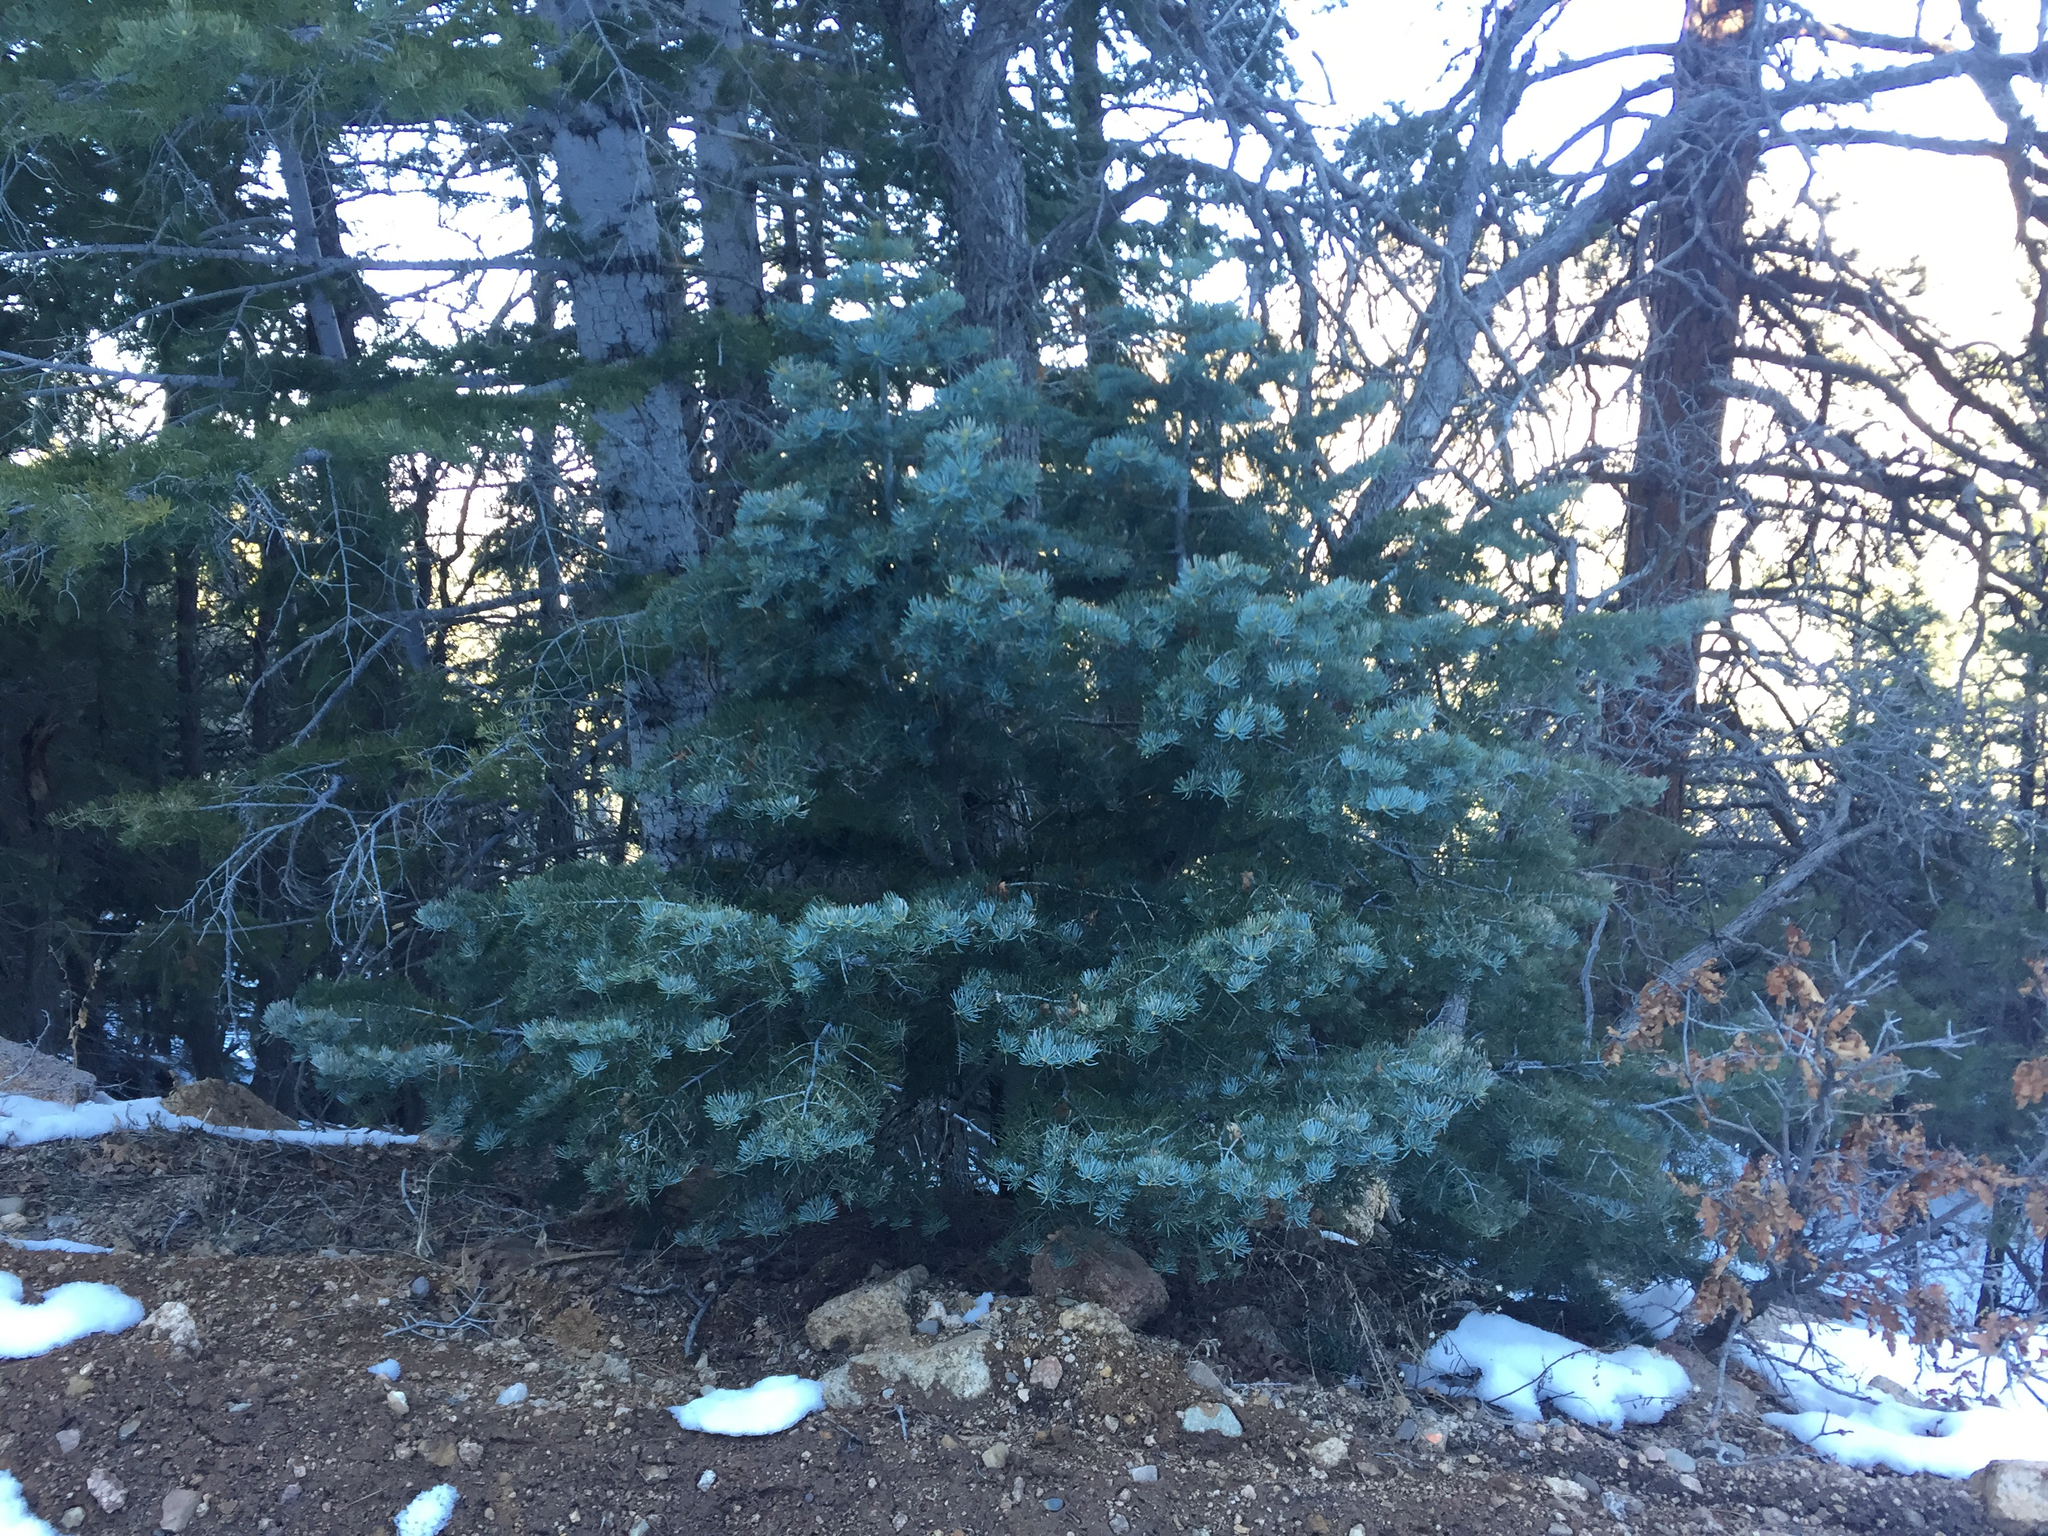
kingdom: Plantae
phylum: Tracheophyta
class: Pinopsida
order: Pinales
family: Pinaceae
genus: Abies
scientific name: Abies concolor
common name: Colorado fir
